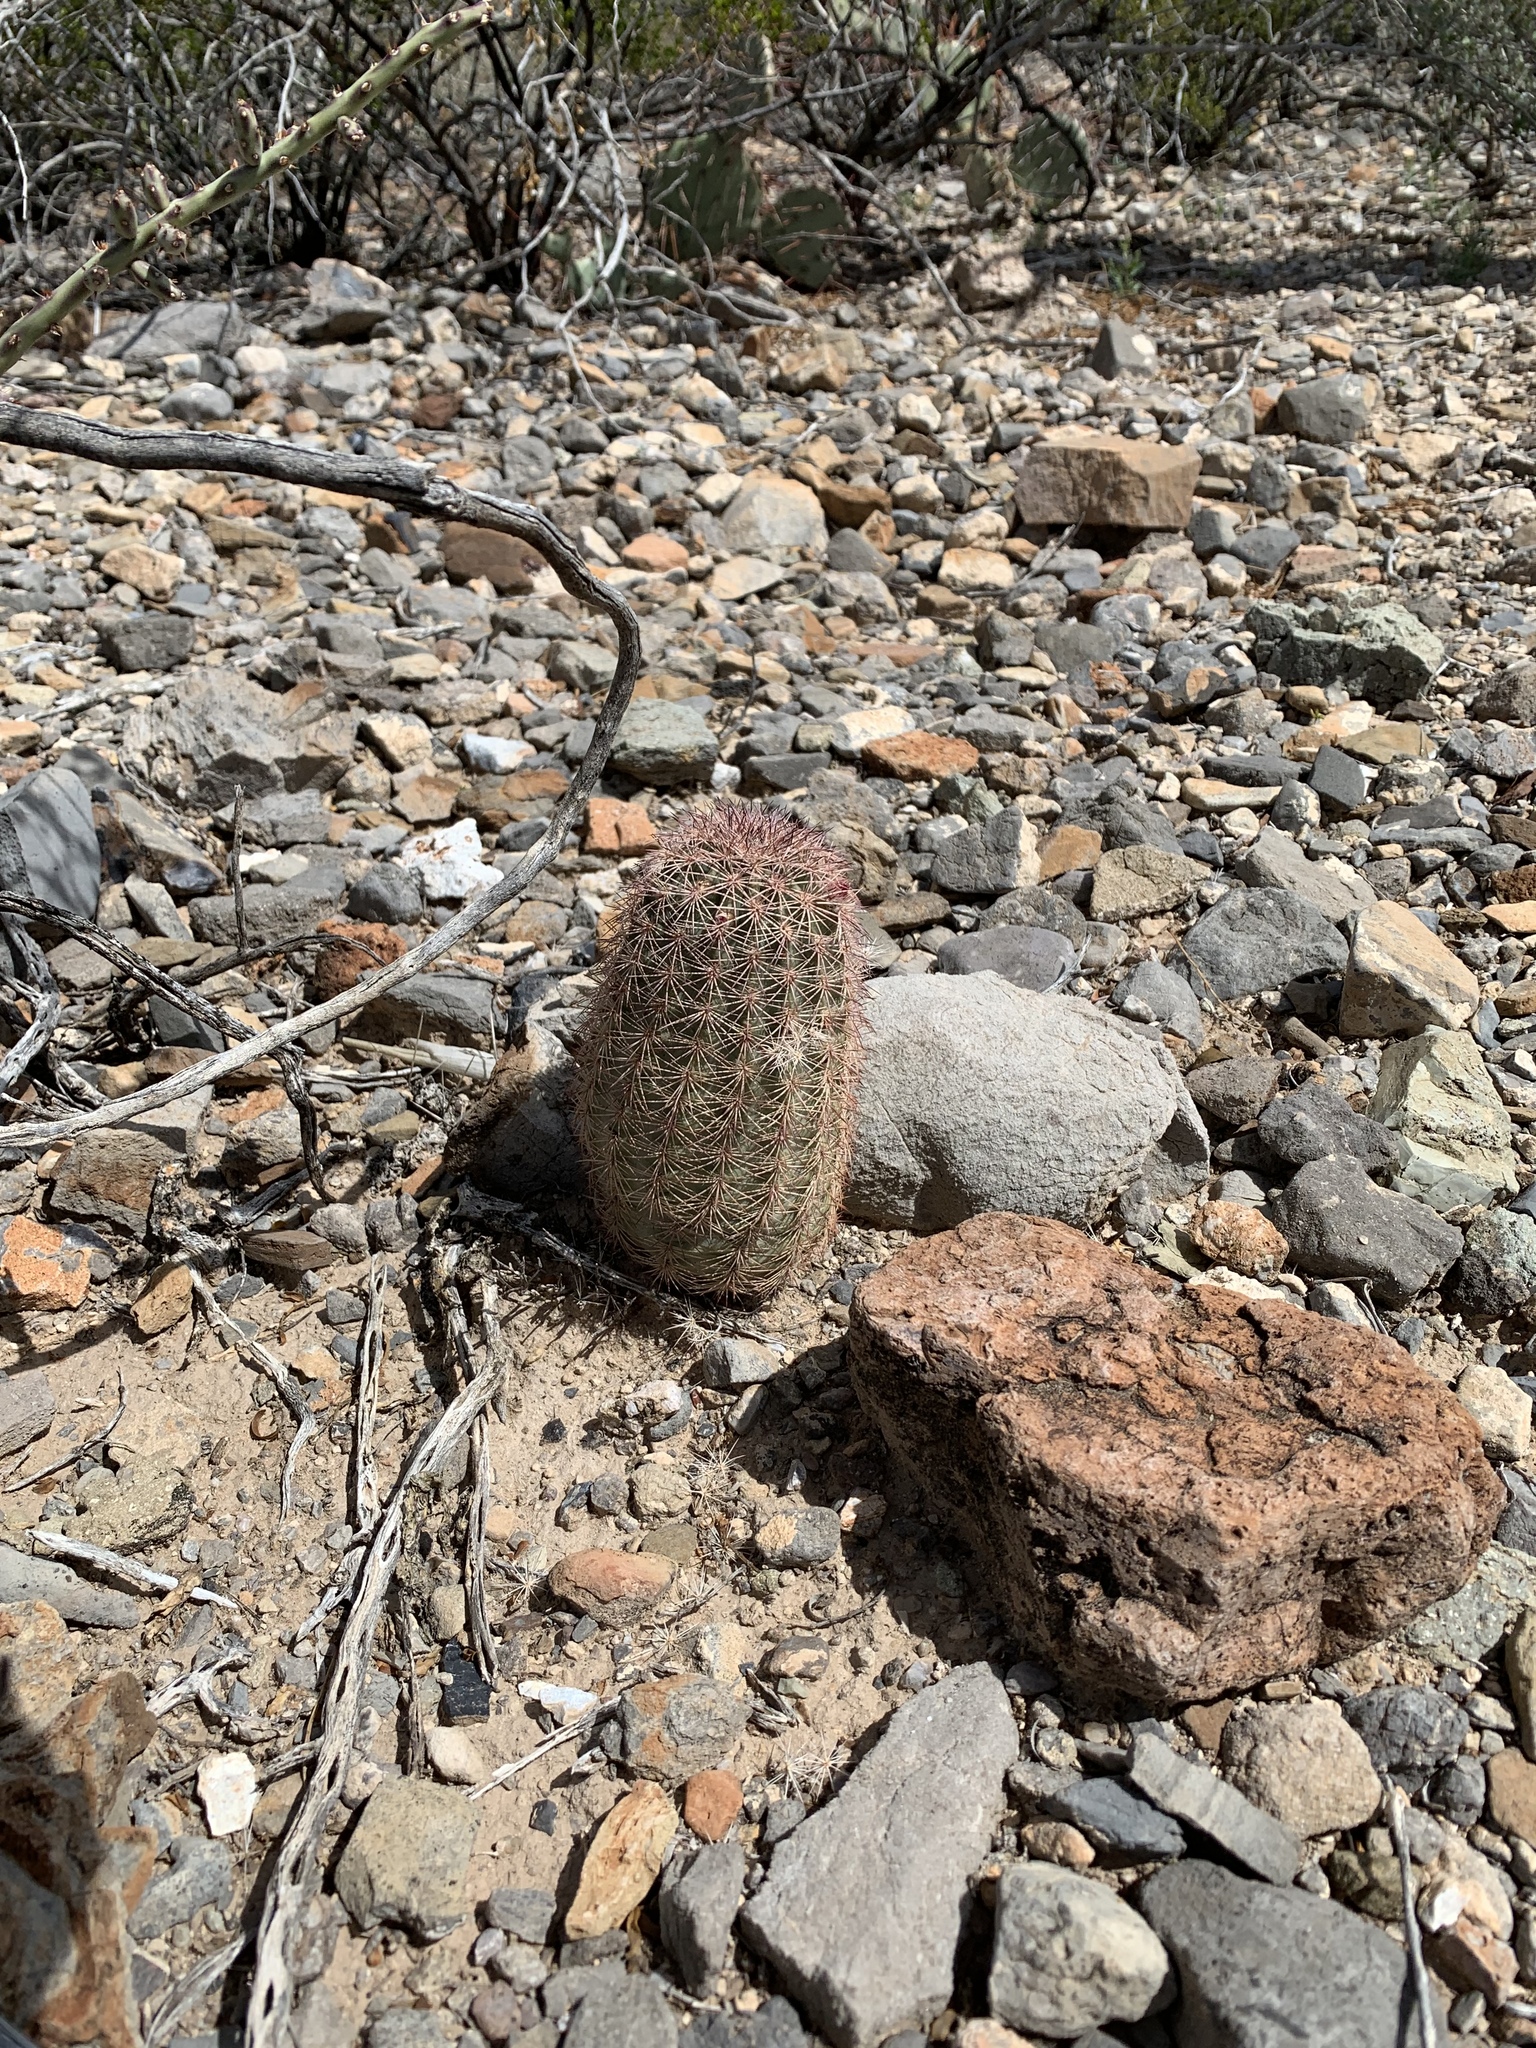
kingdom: Plantae
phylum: Tracheophyta
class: Magnoliopsida
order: Caryophyllales
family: Cactaceae
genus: Echinocereus
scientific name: Echinocereus dasyacanthus
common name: Spiny hedgehog cactus
